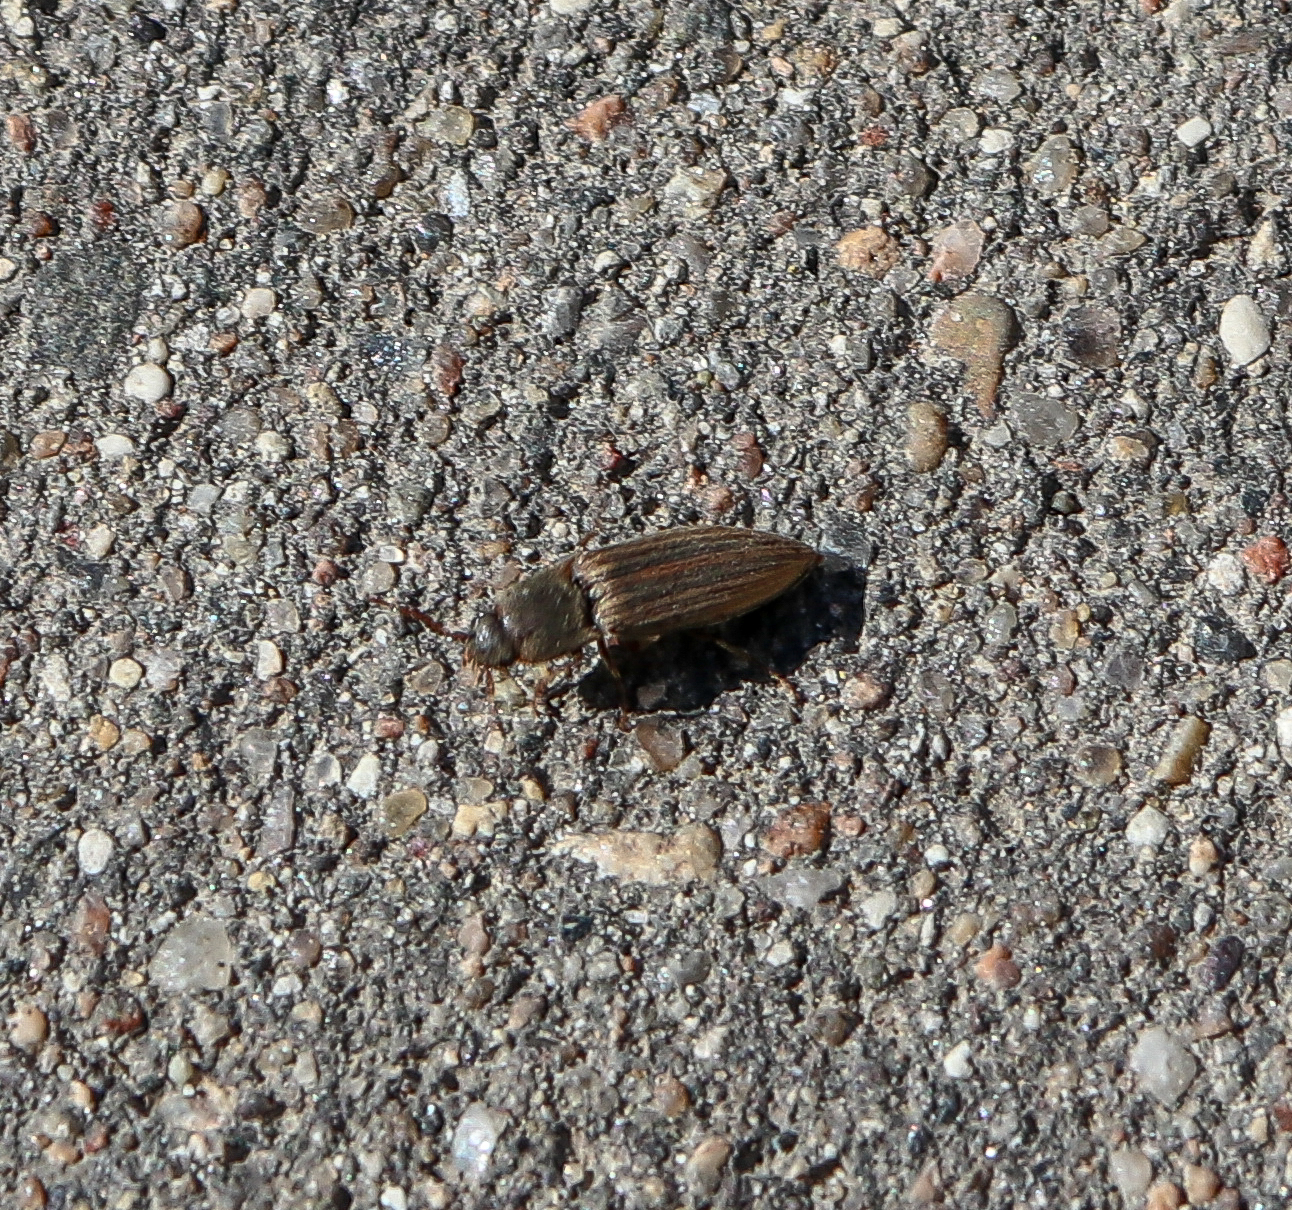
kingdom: Animalia
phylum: Arthropoda
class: Insecta
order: Coleoptera
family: Elateridae
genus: Agriotes
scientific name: Agriotes lineatus
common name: Lined click beetle
